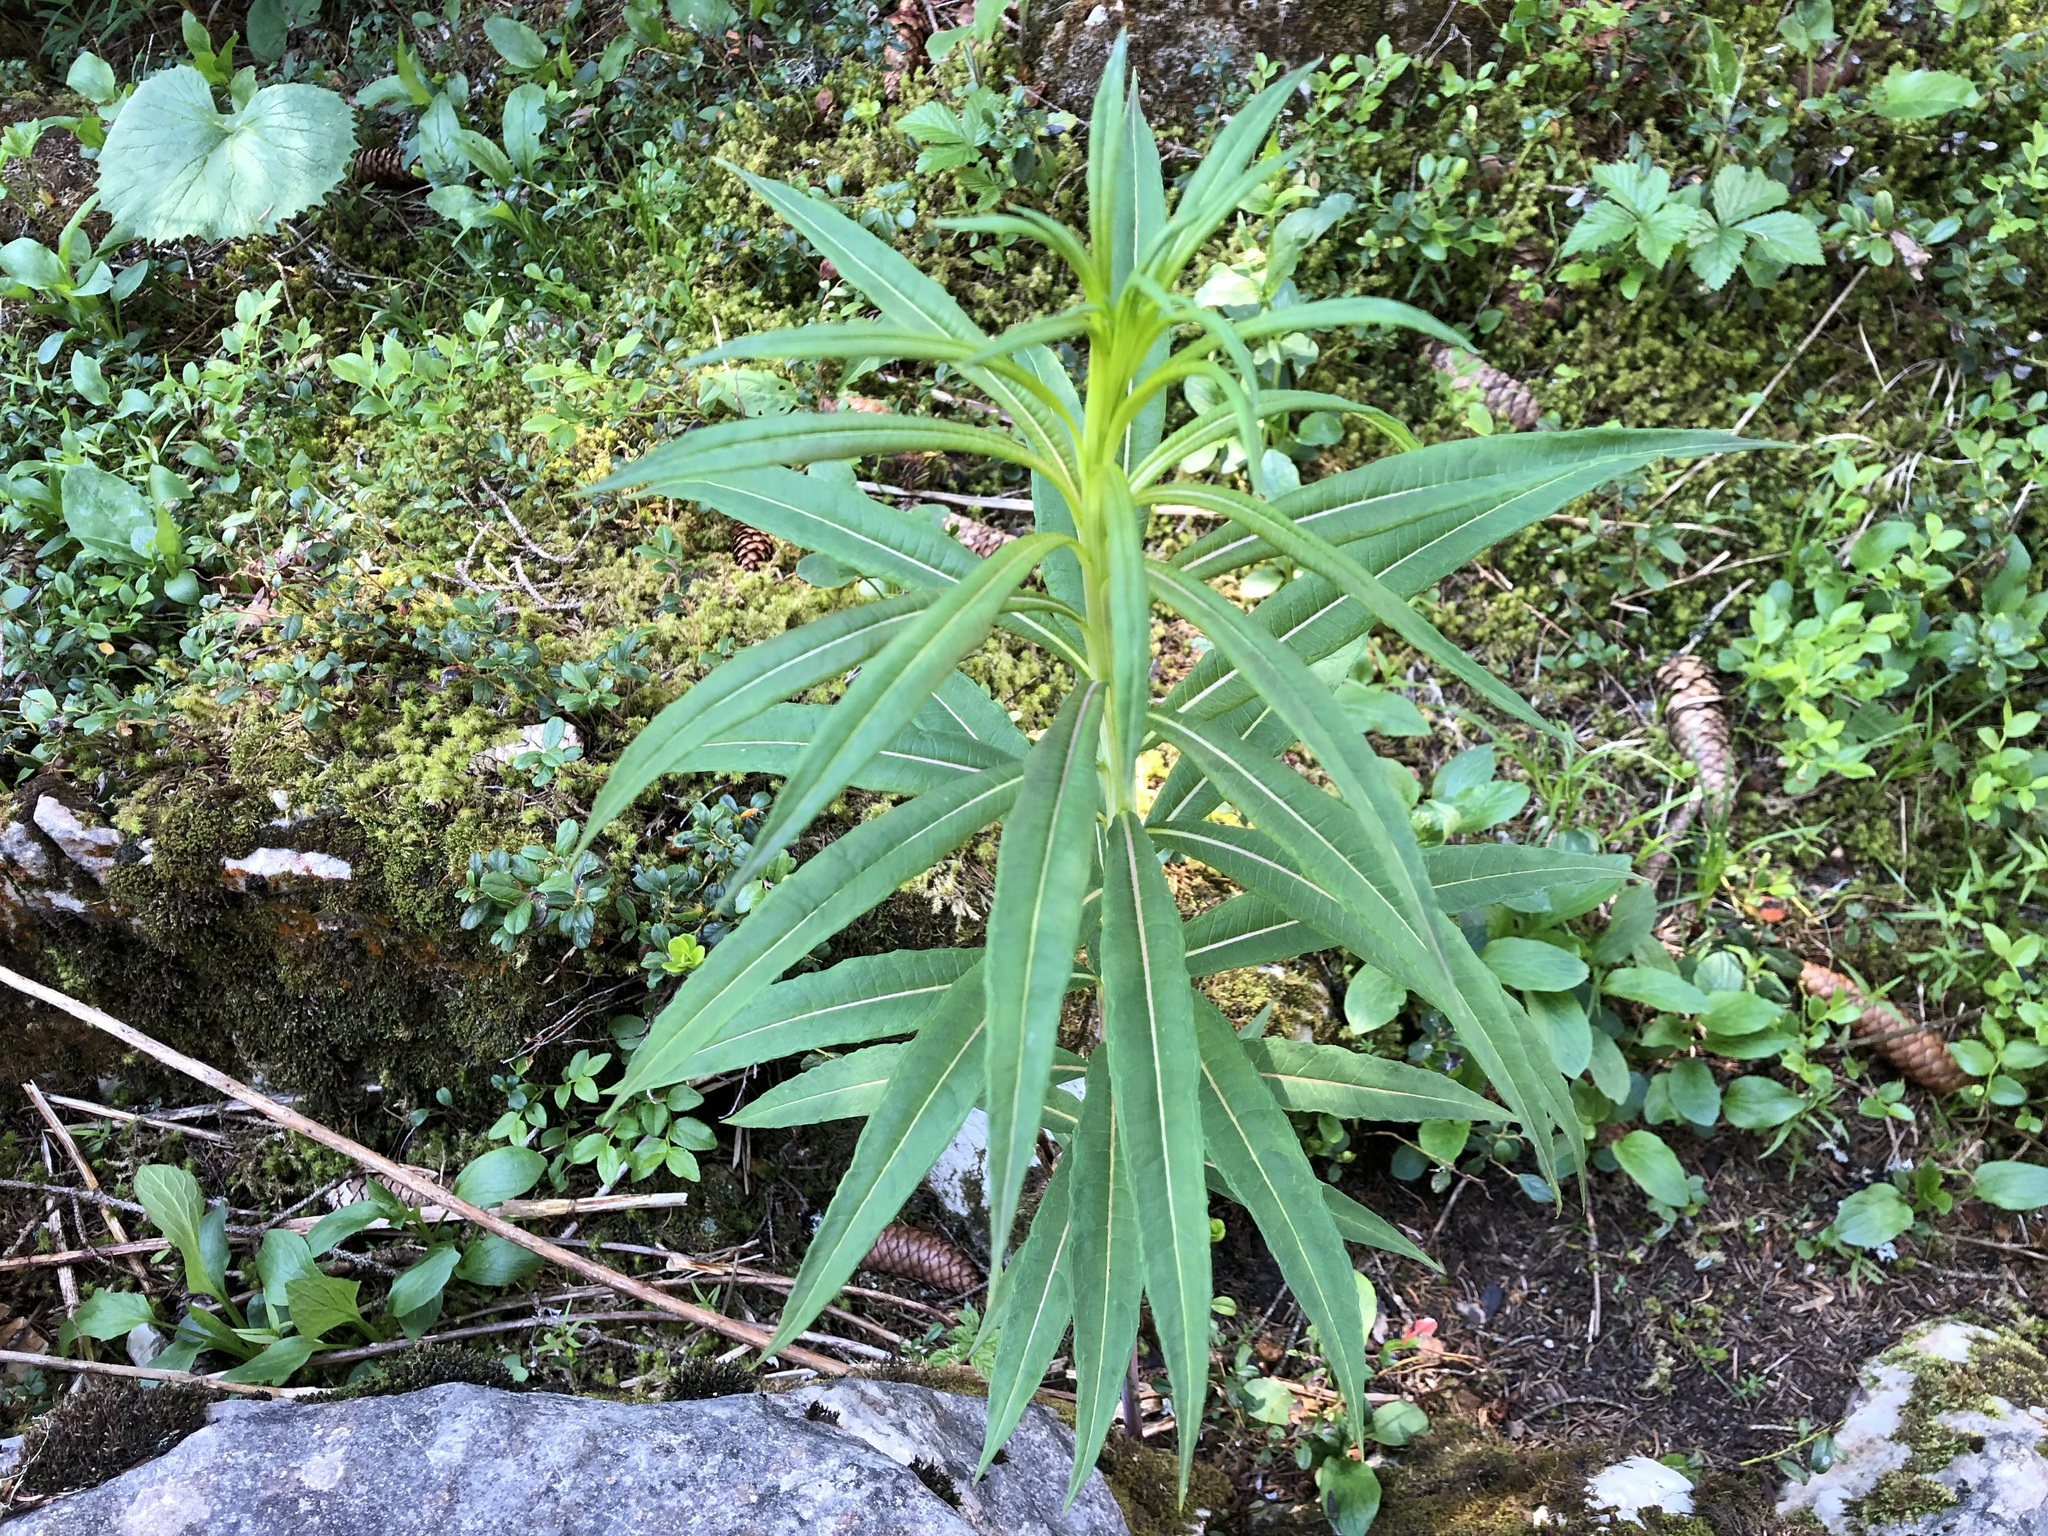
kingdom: Plantae
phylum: Tracheophyta
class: Magnoliopsida
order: Myrtales
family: Onagraceae
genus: Chamaenerion
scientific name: Chamaenerion angustifolium
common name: Fireweed
